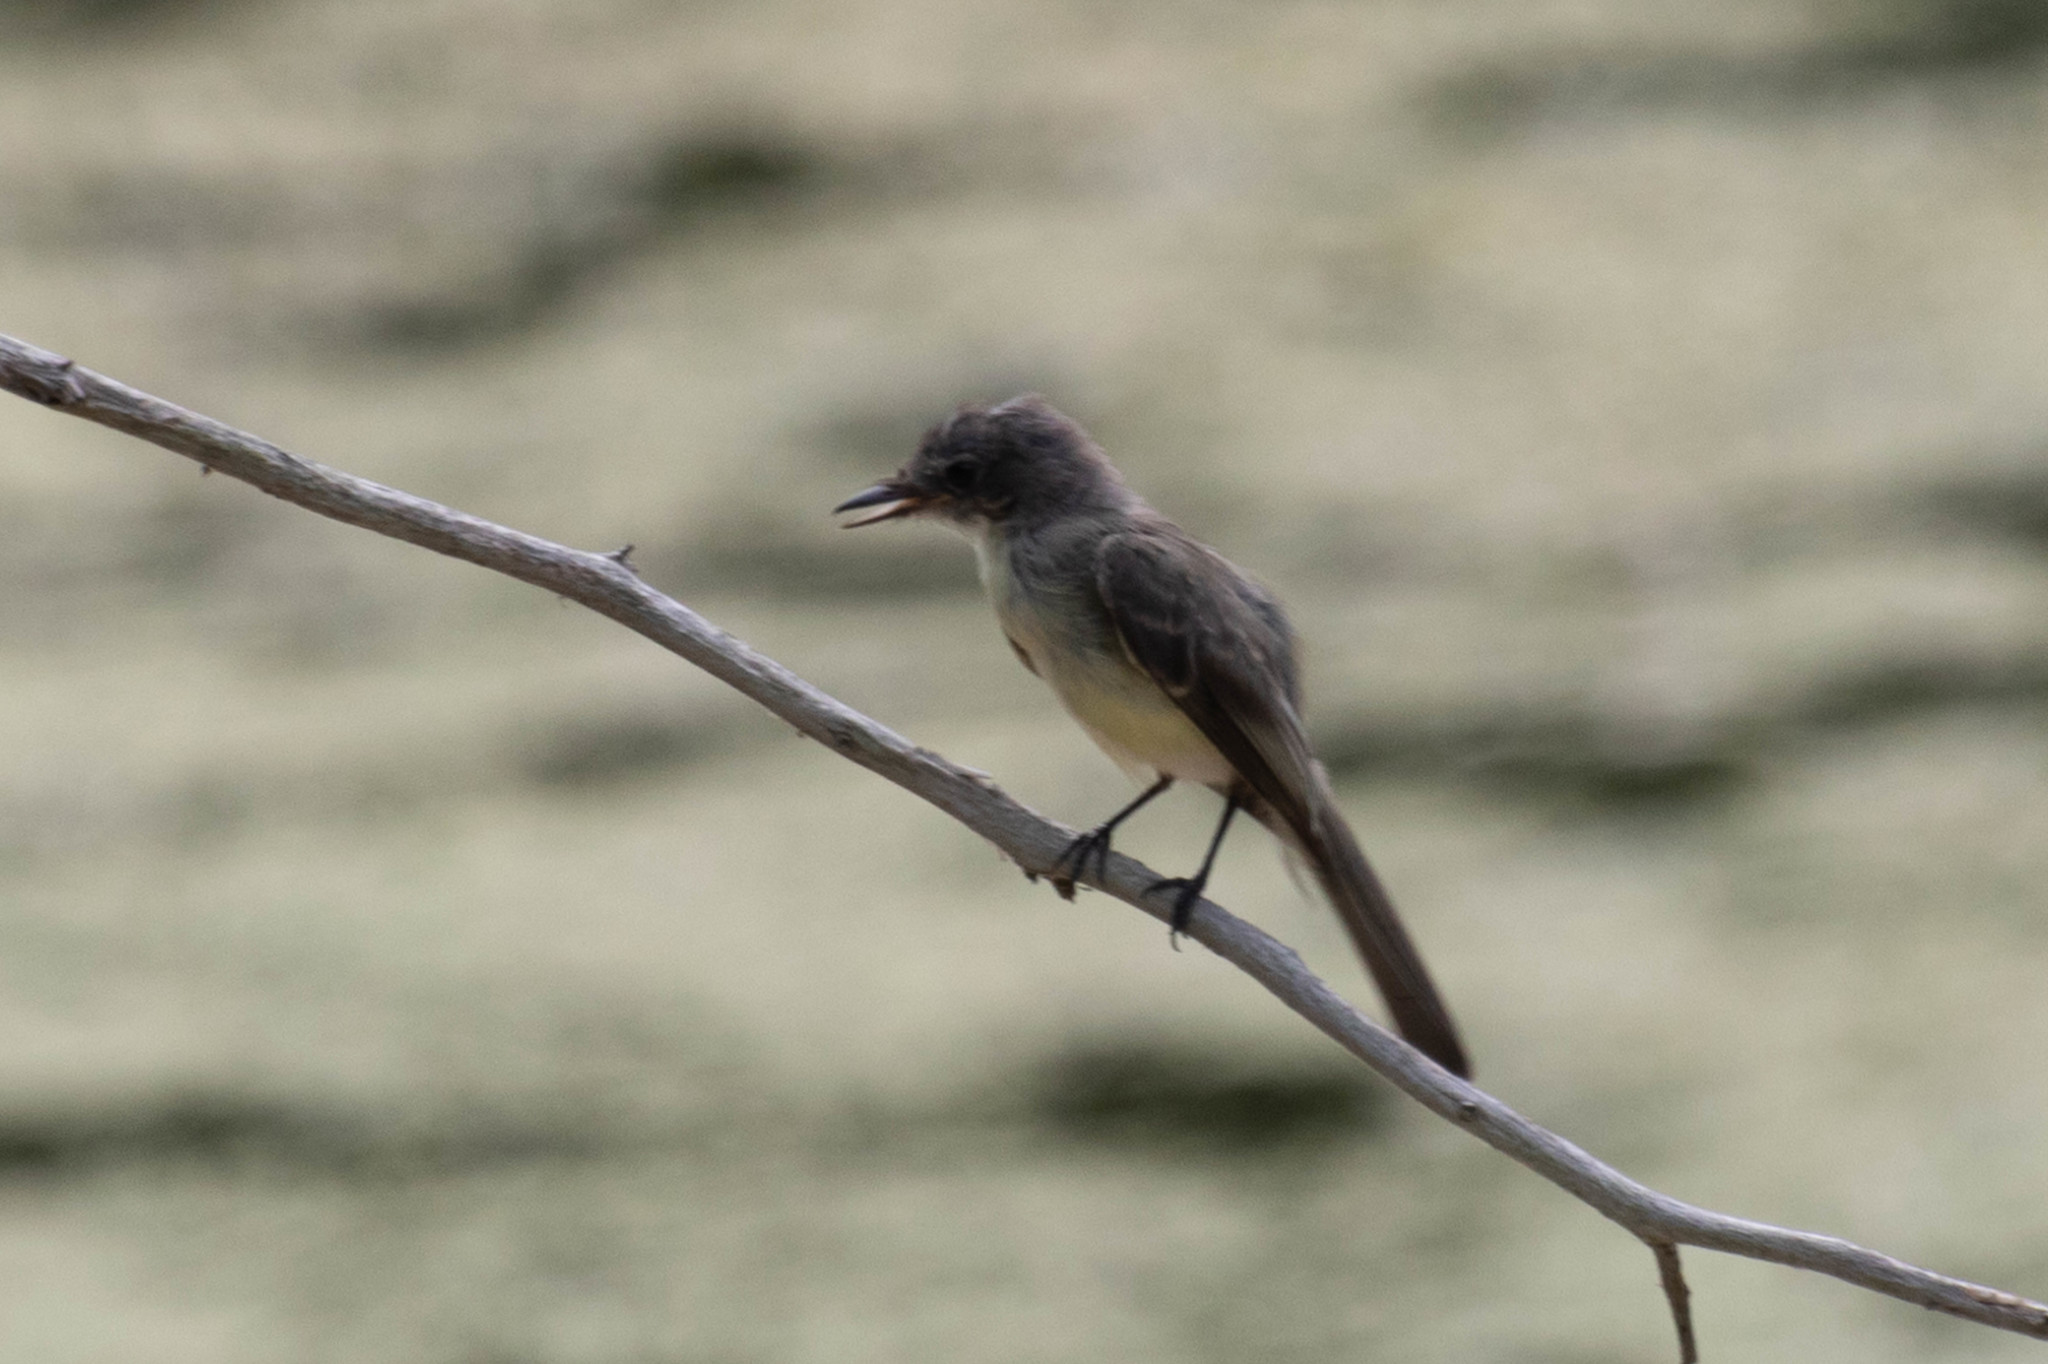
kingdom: Animalia
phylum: Chordata
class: Aves
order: Passeriformes
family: Tyrannidae
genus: Sayornis
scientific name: Sayornis phoebe
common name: Eastern phoebe
